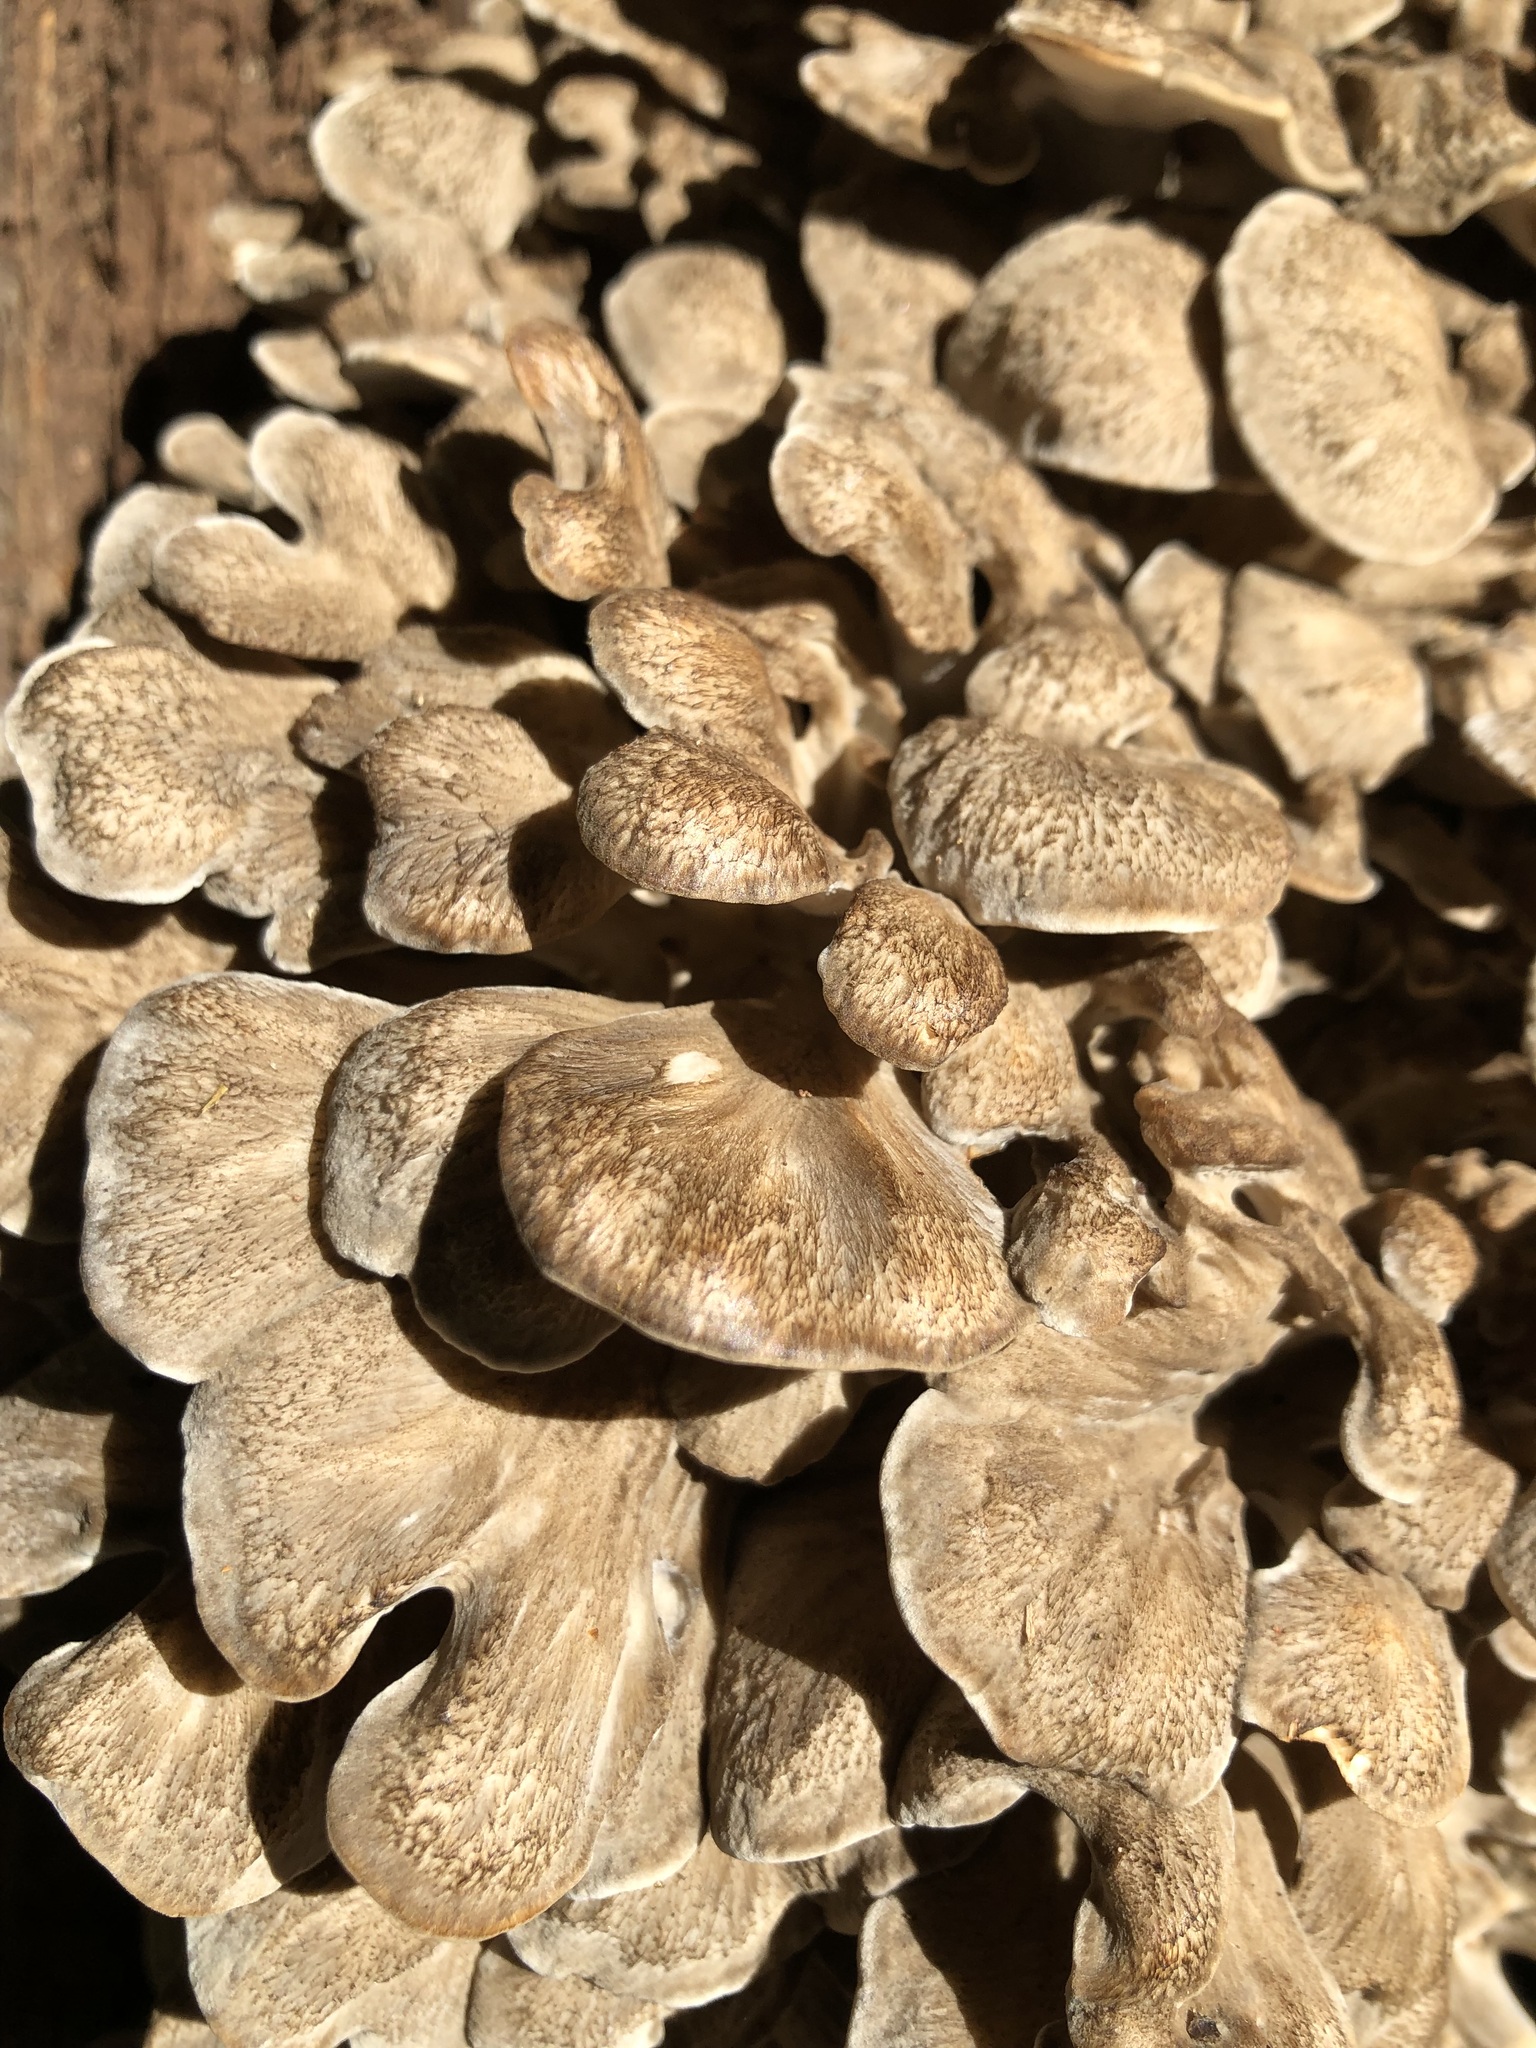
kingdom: Fungi
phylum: Basidiomycota
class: Agaricomycetes
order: Polyporales
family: Grifolaceae
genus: Grifola
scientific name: Grifola frondosa
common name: Hen of the woods
